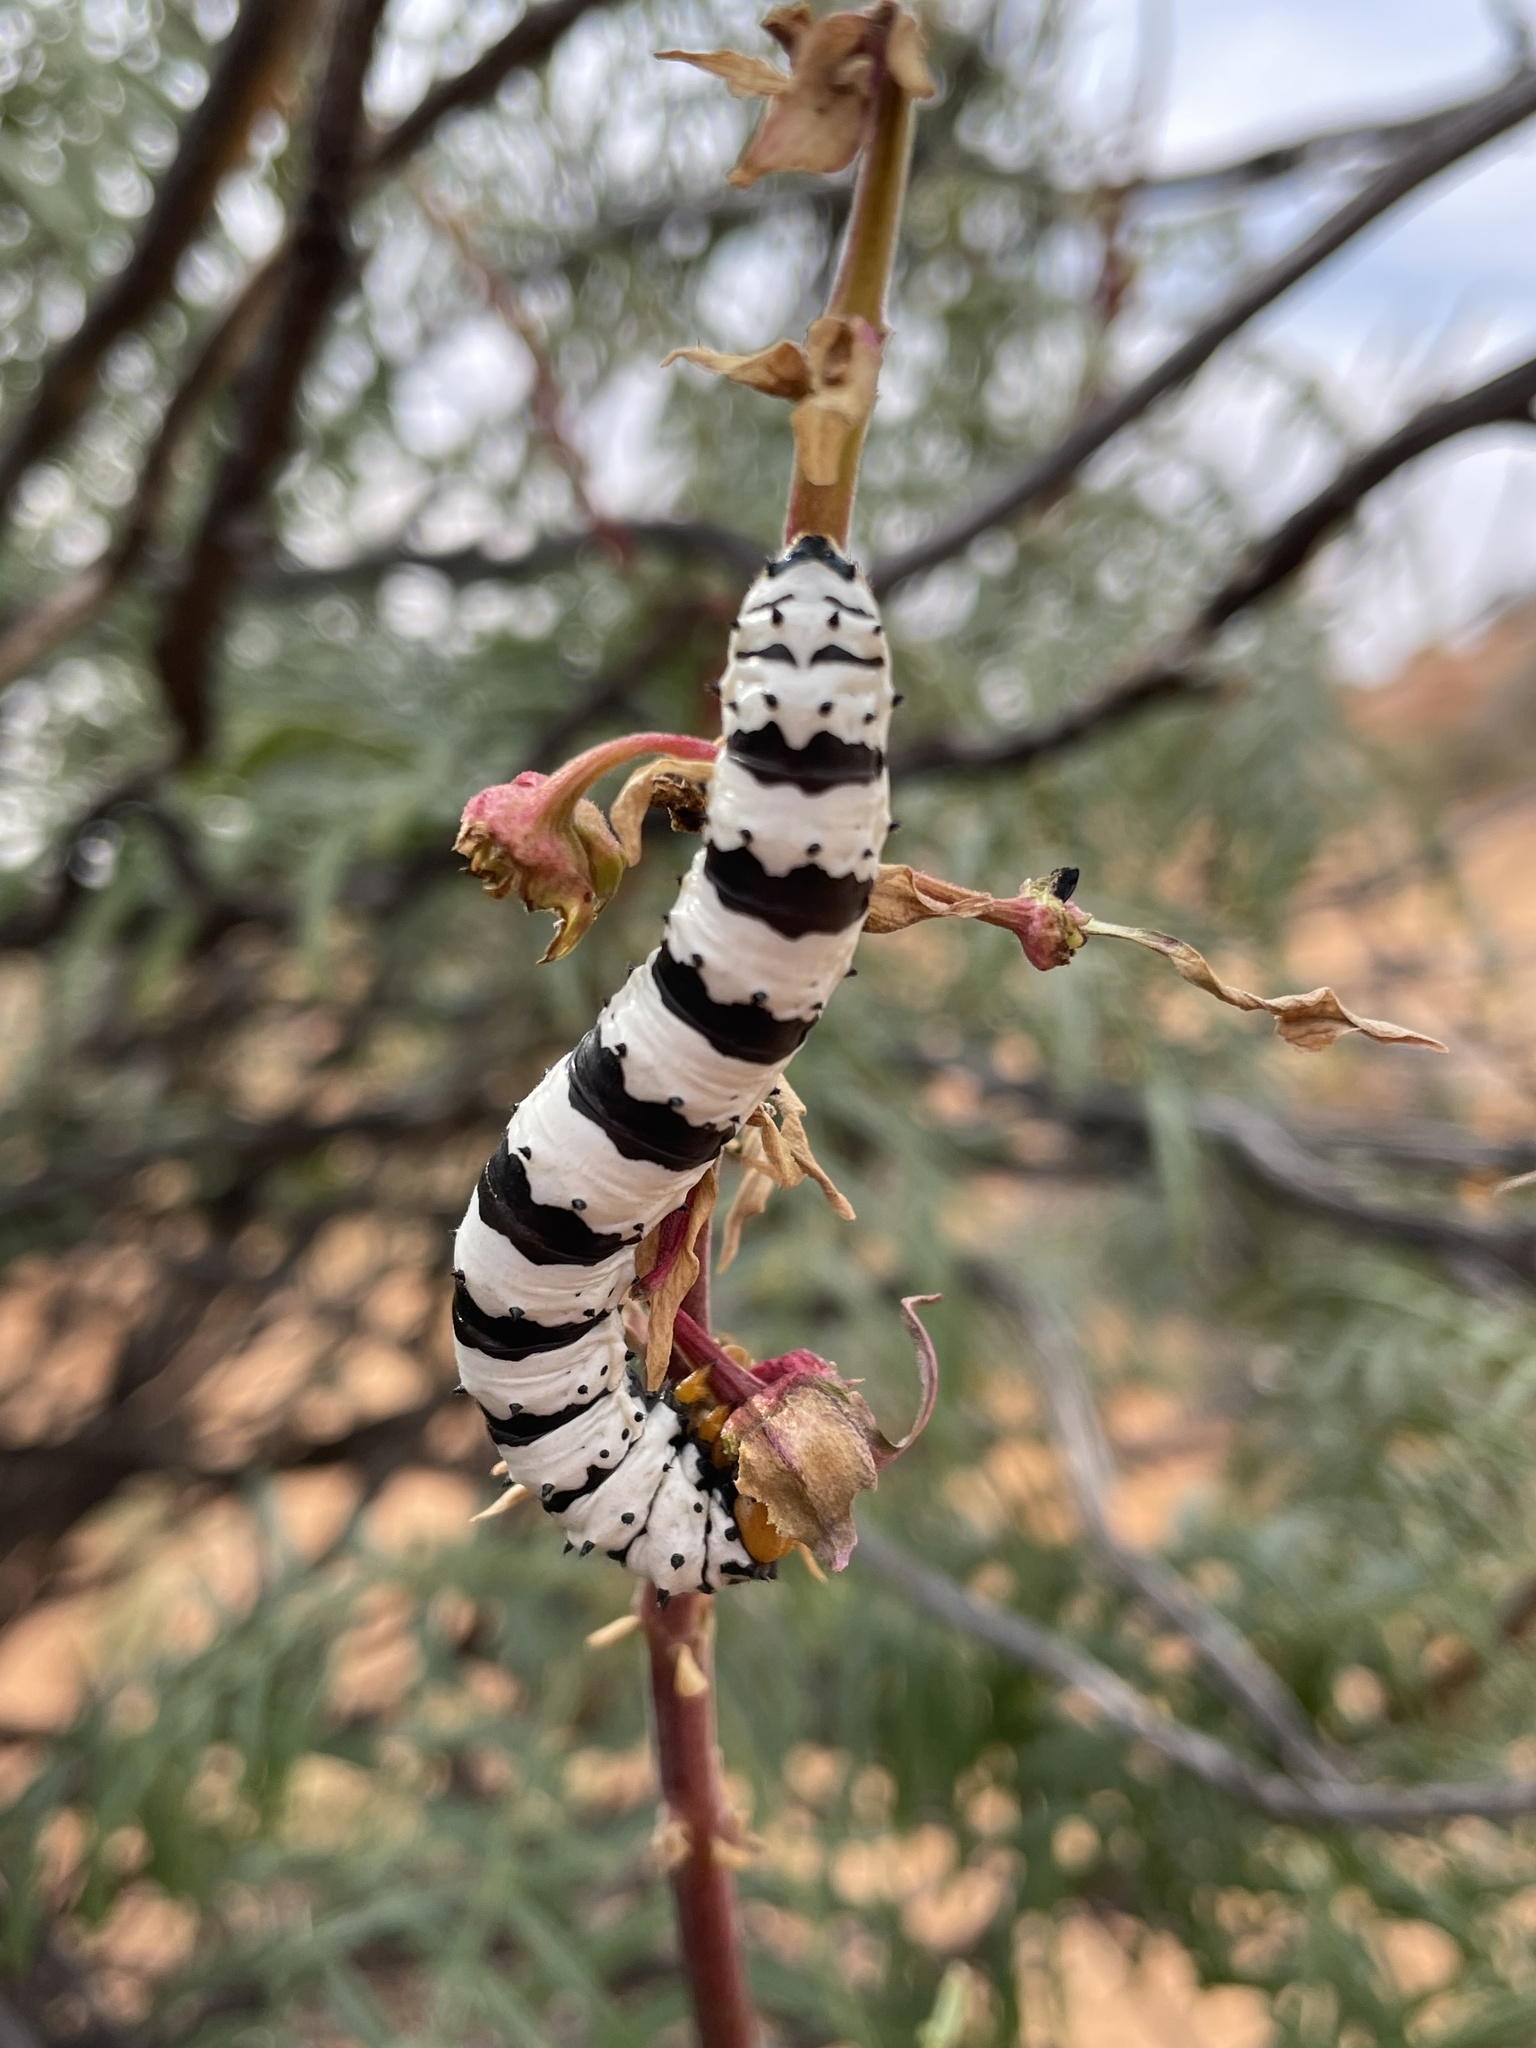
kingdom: Animalia
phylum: Arthropoda
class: Insecta
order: Lepidoptera
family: Saturniidae
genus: Eochroa
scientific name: Eochroa trimeni
